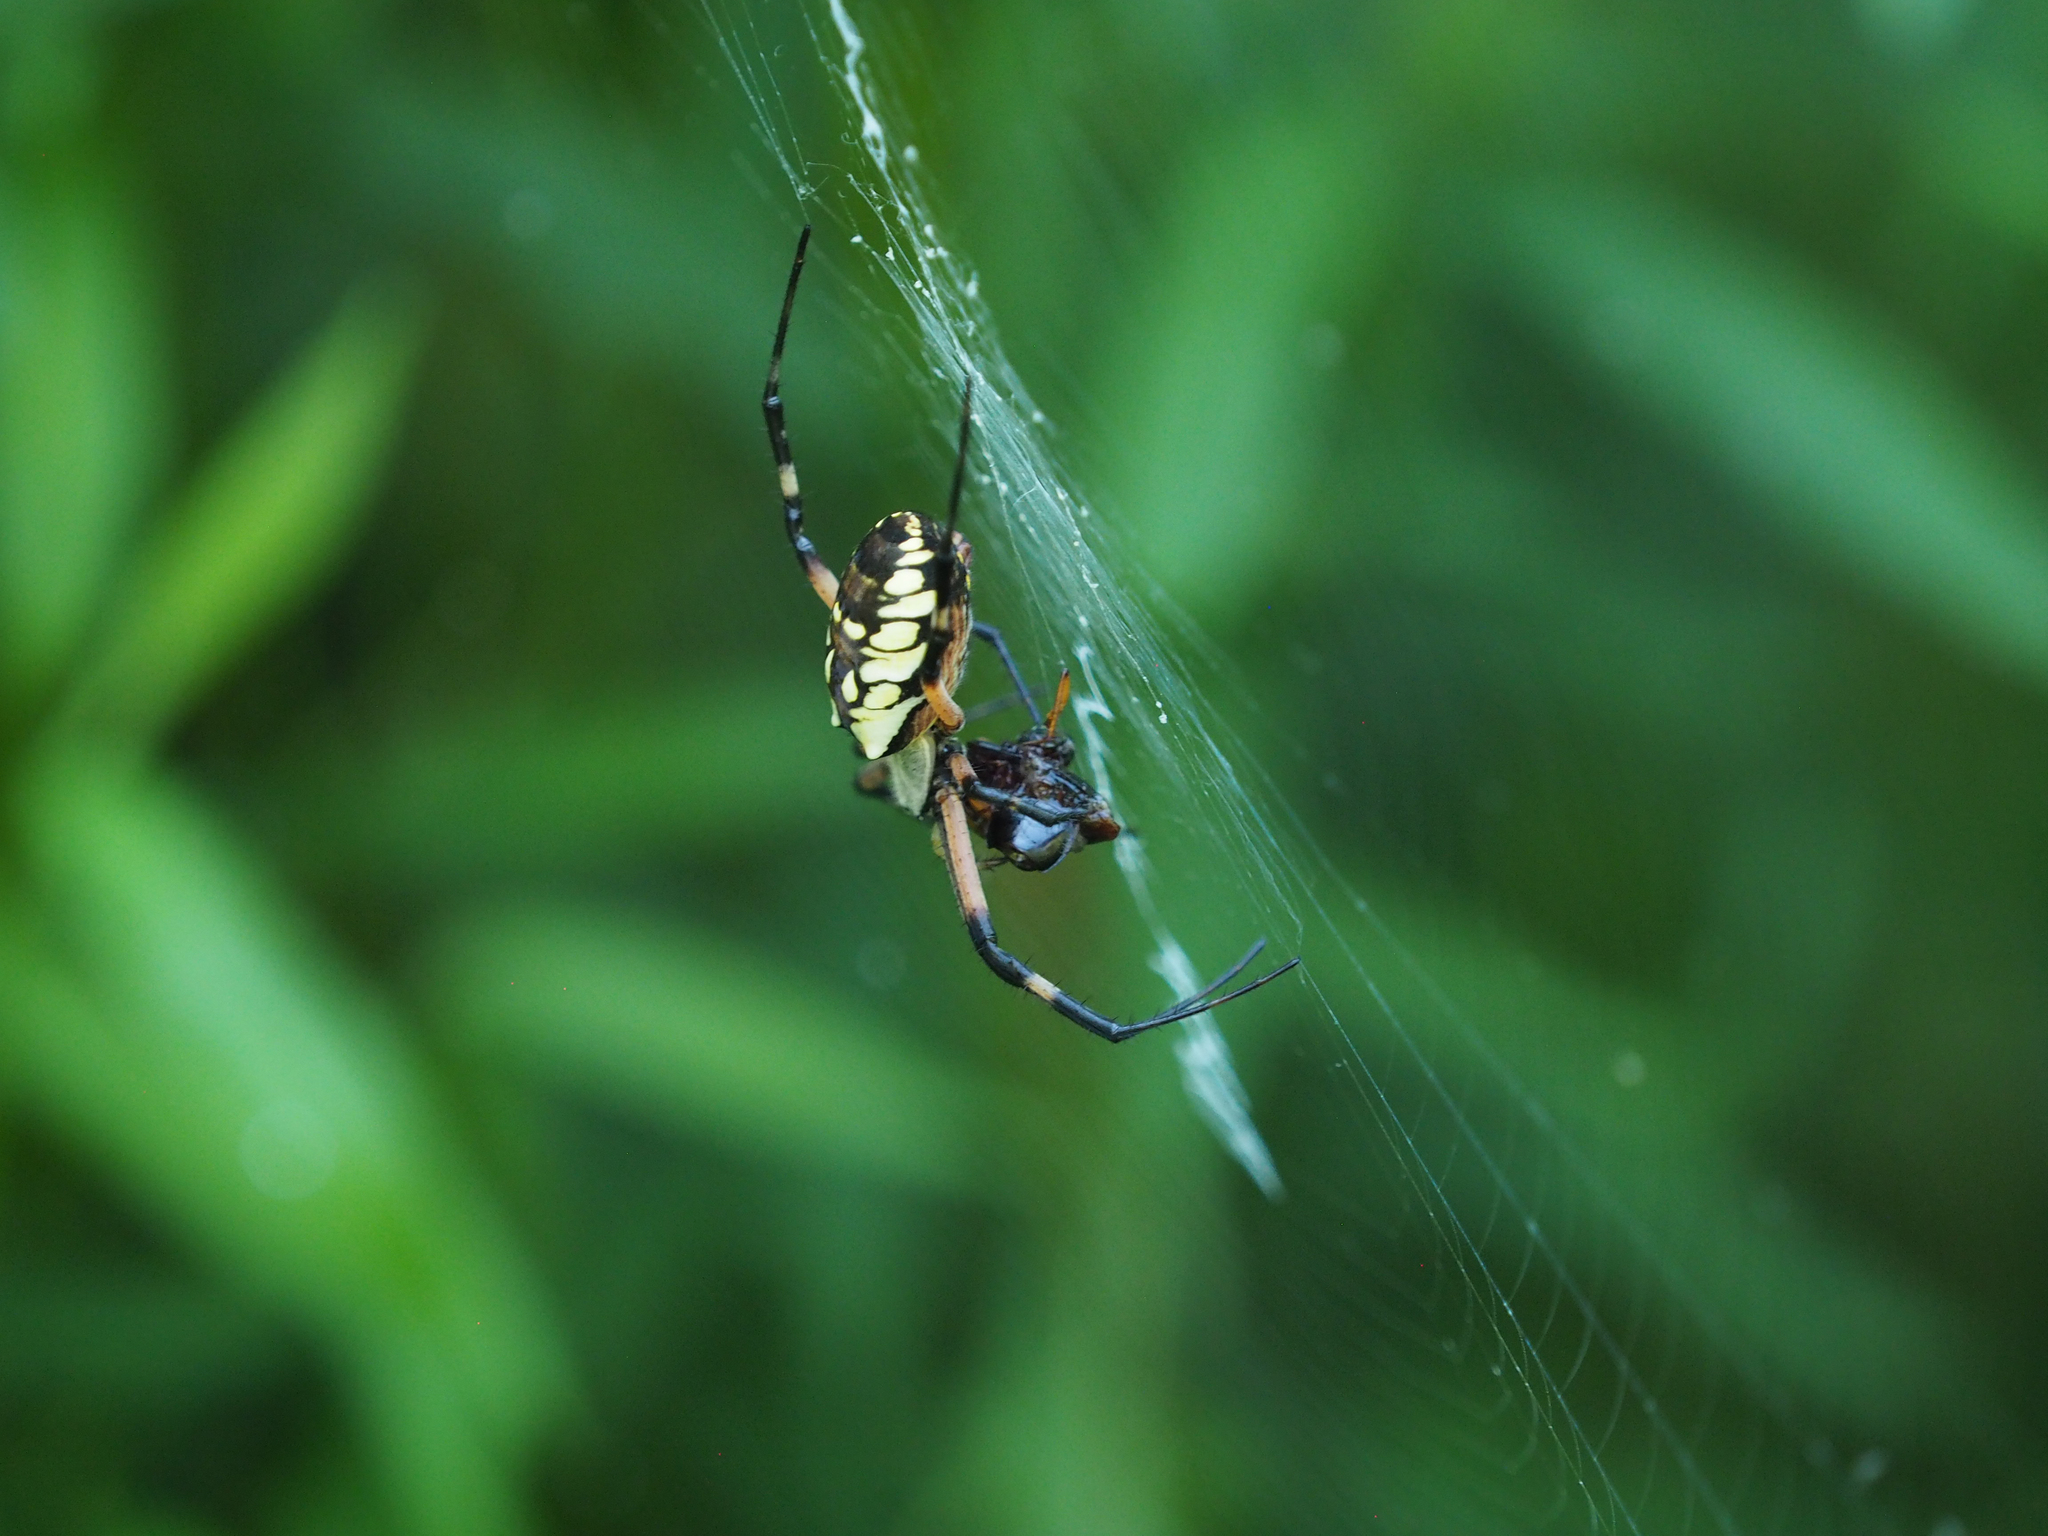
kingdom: Animalia
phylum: Arthropoda
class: Arachnida
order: Araneae
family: Araneidae
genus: Argiope
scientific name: Argiope aurantia
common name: Orb weavers
